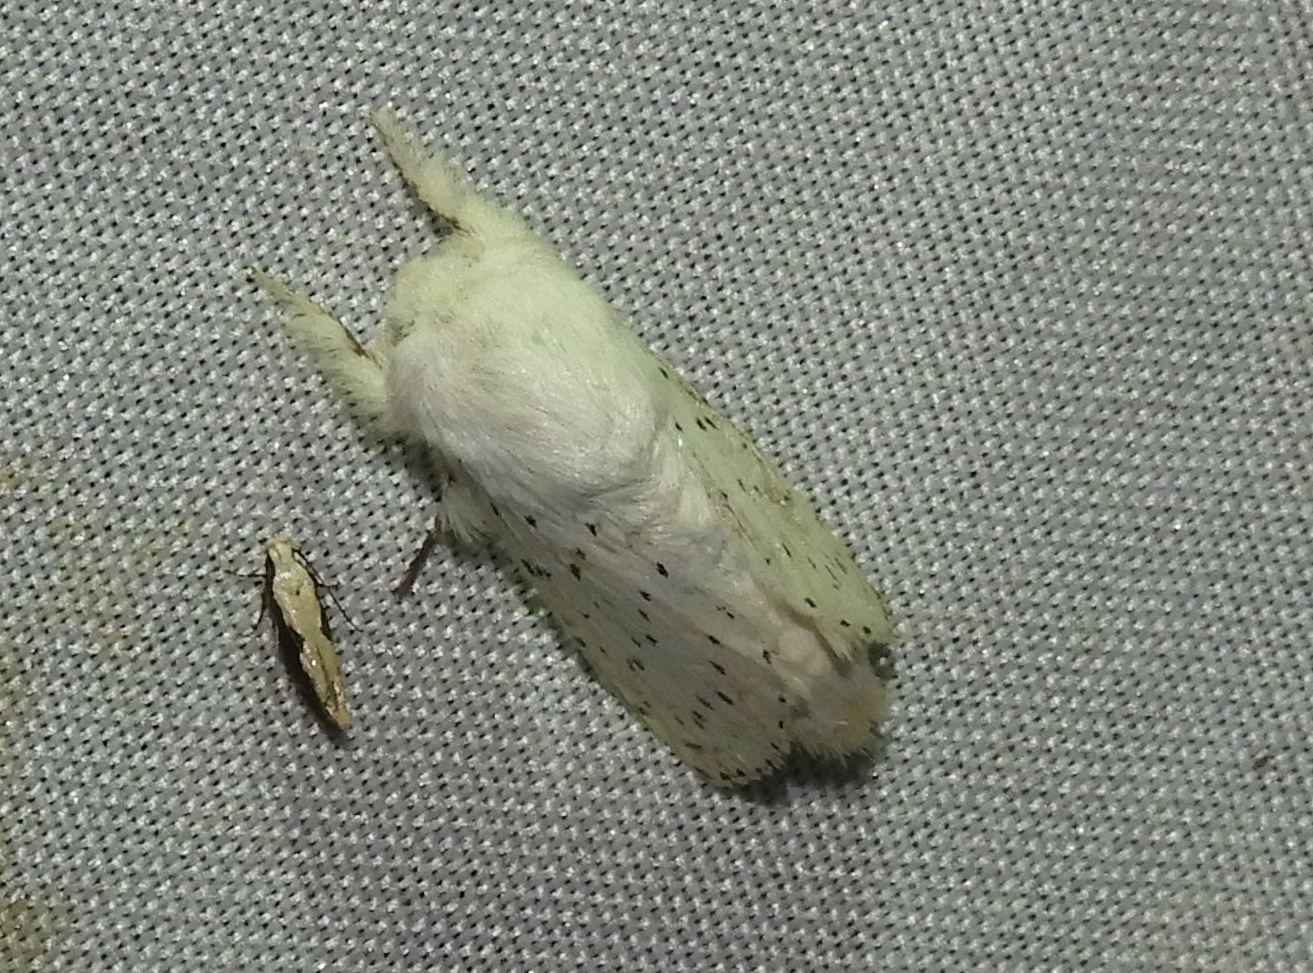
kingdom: Animalia
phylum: Arthropoda
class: Insecta
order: Lepidoptera
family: Lasiocampidae
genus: Artace
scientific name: Artace
